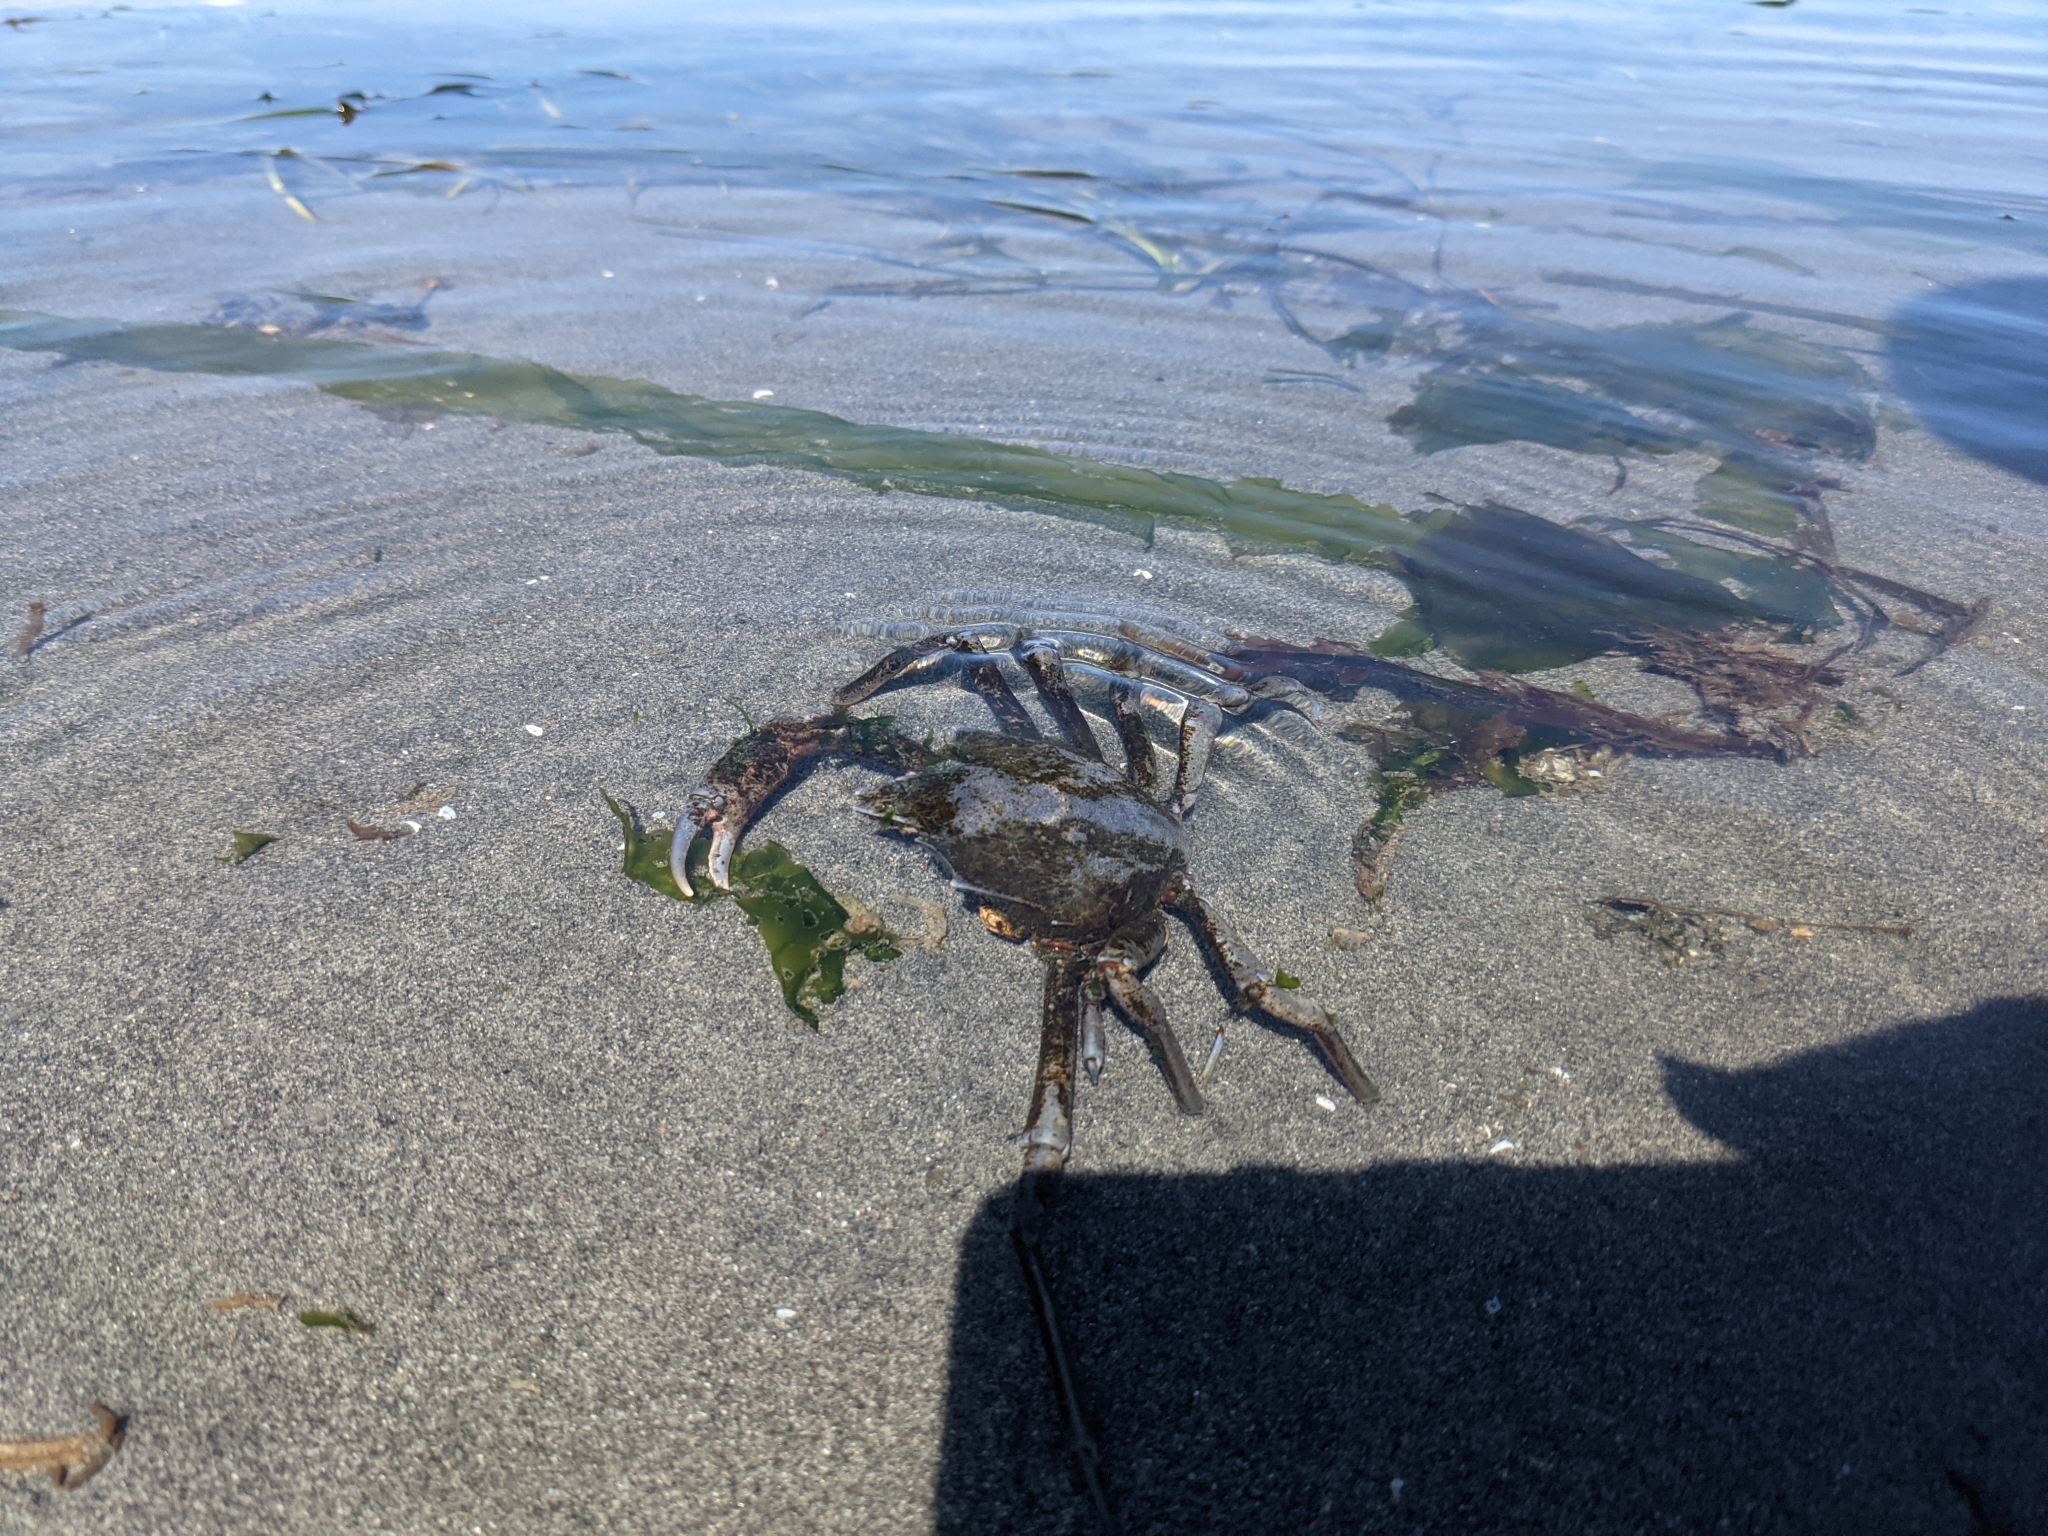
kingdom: Animalia
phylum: Arthropoda
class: Malacostraca
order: Decapoda
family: Epialtidae
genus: Pugettia
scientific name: Pugettia producta
